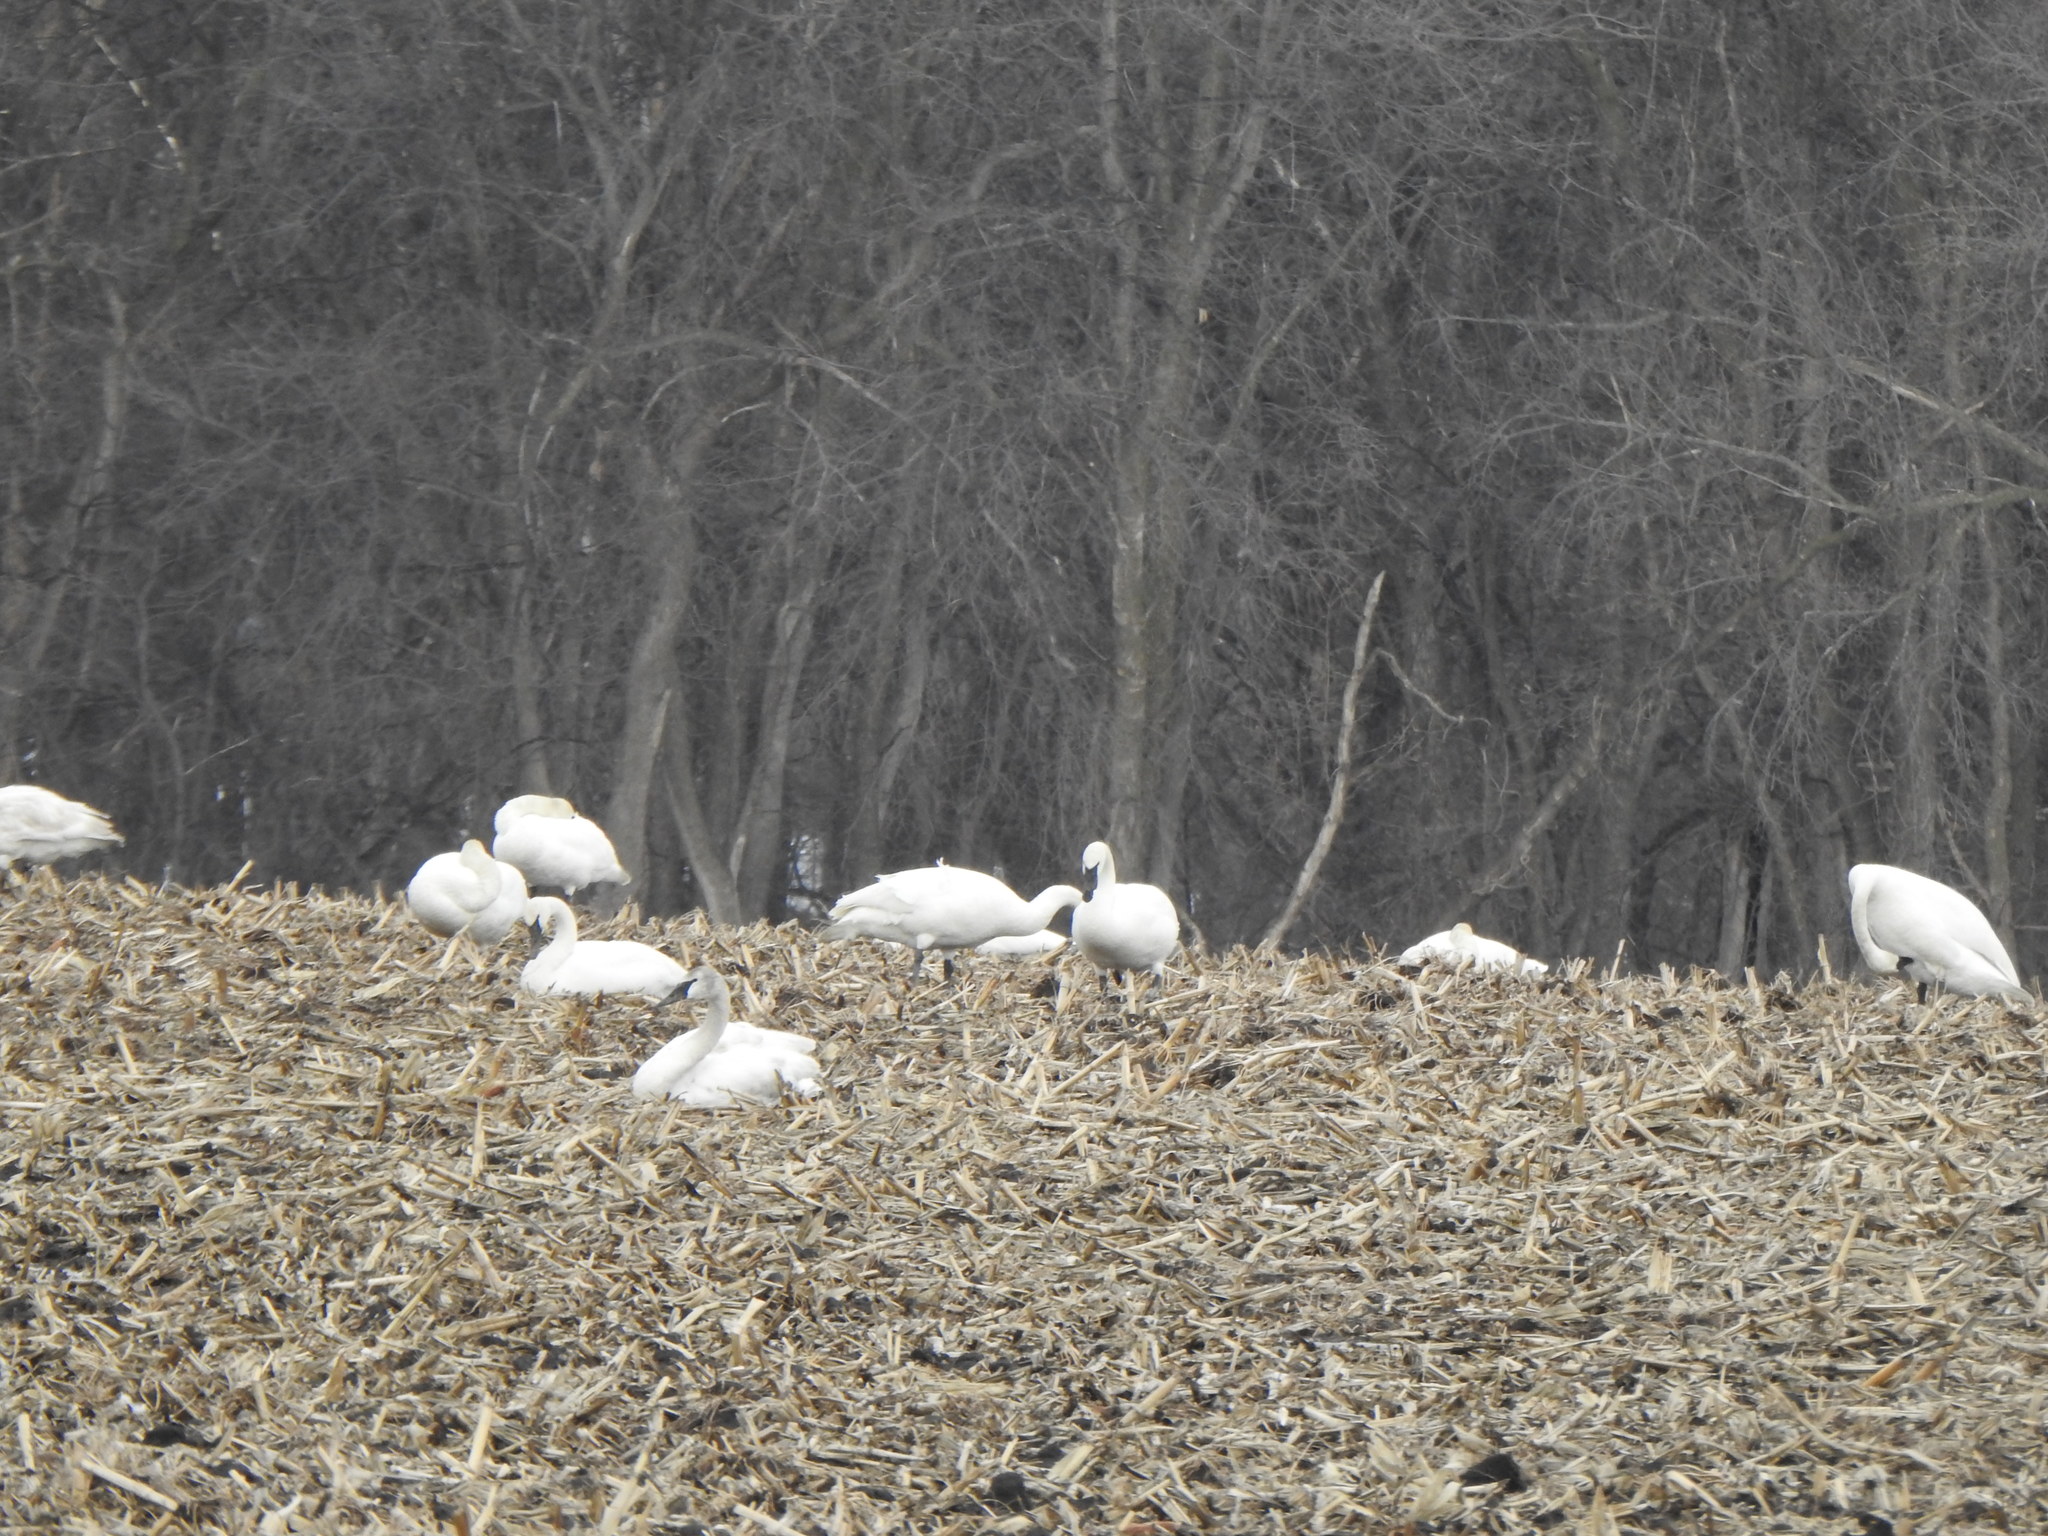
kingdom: Animalia
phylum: Chordata
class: Aves
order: Anseriformes
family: Anatidae
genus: Cygnus
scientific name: Cygnus buccinator
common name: Trumpeter swan
